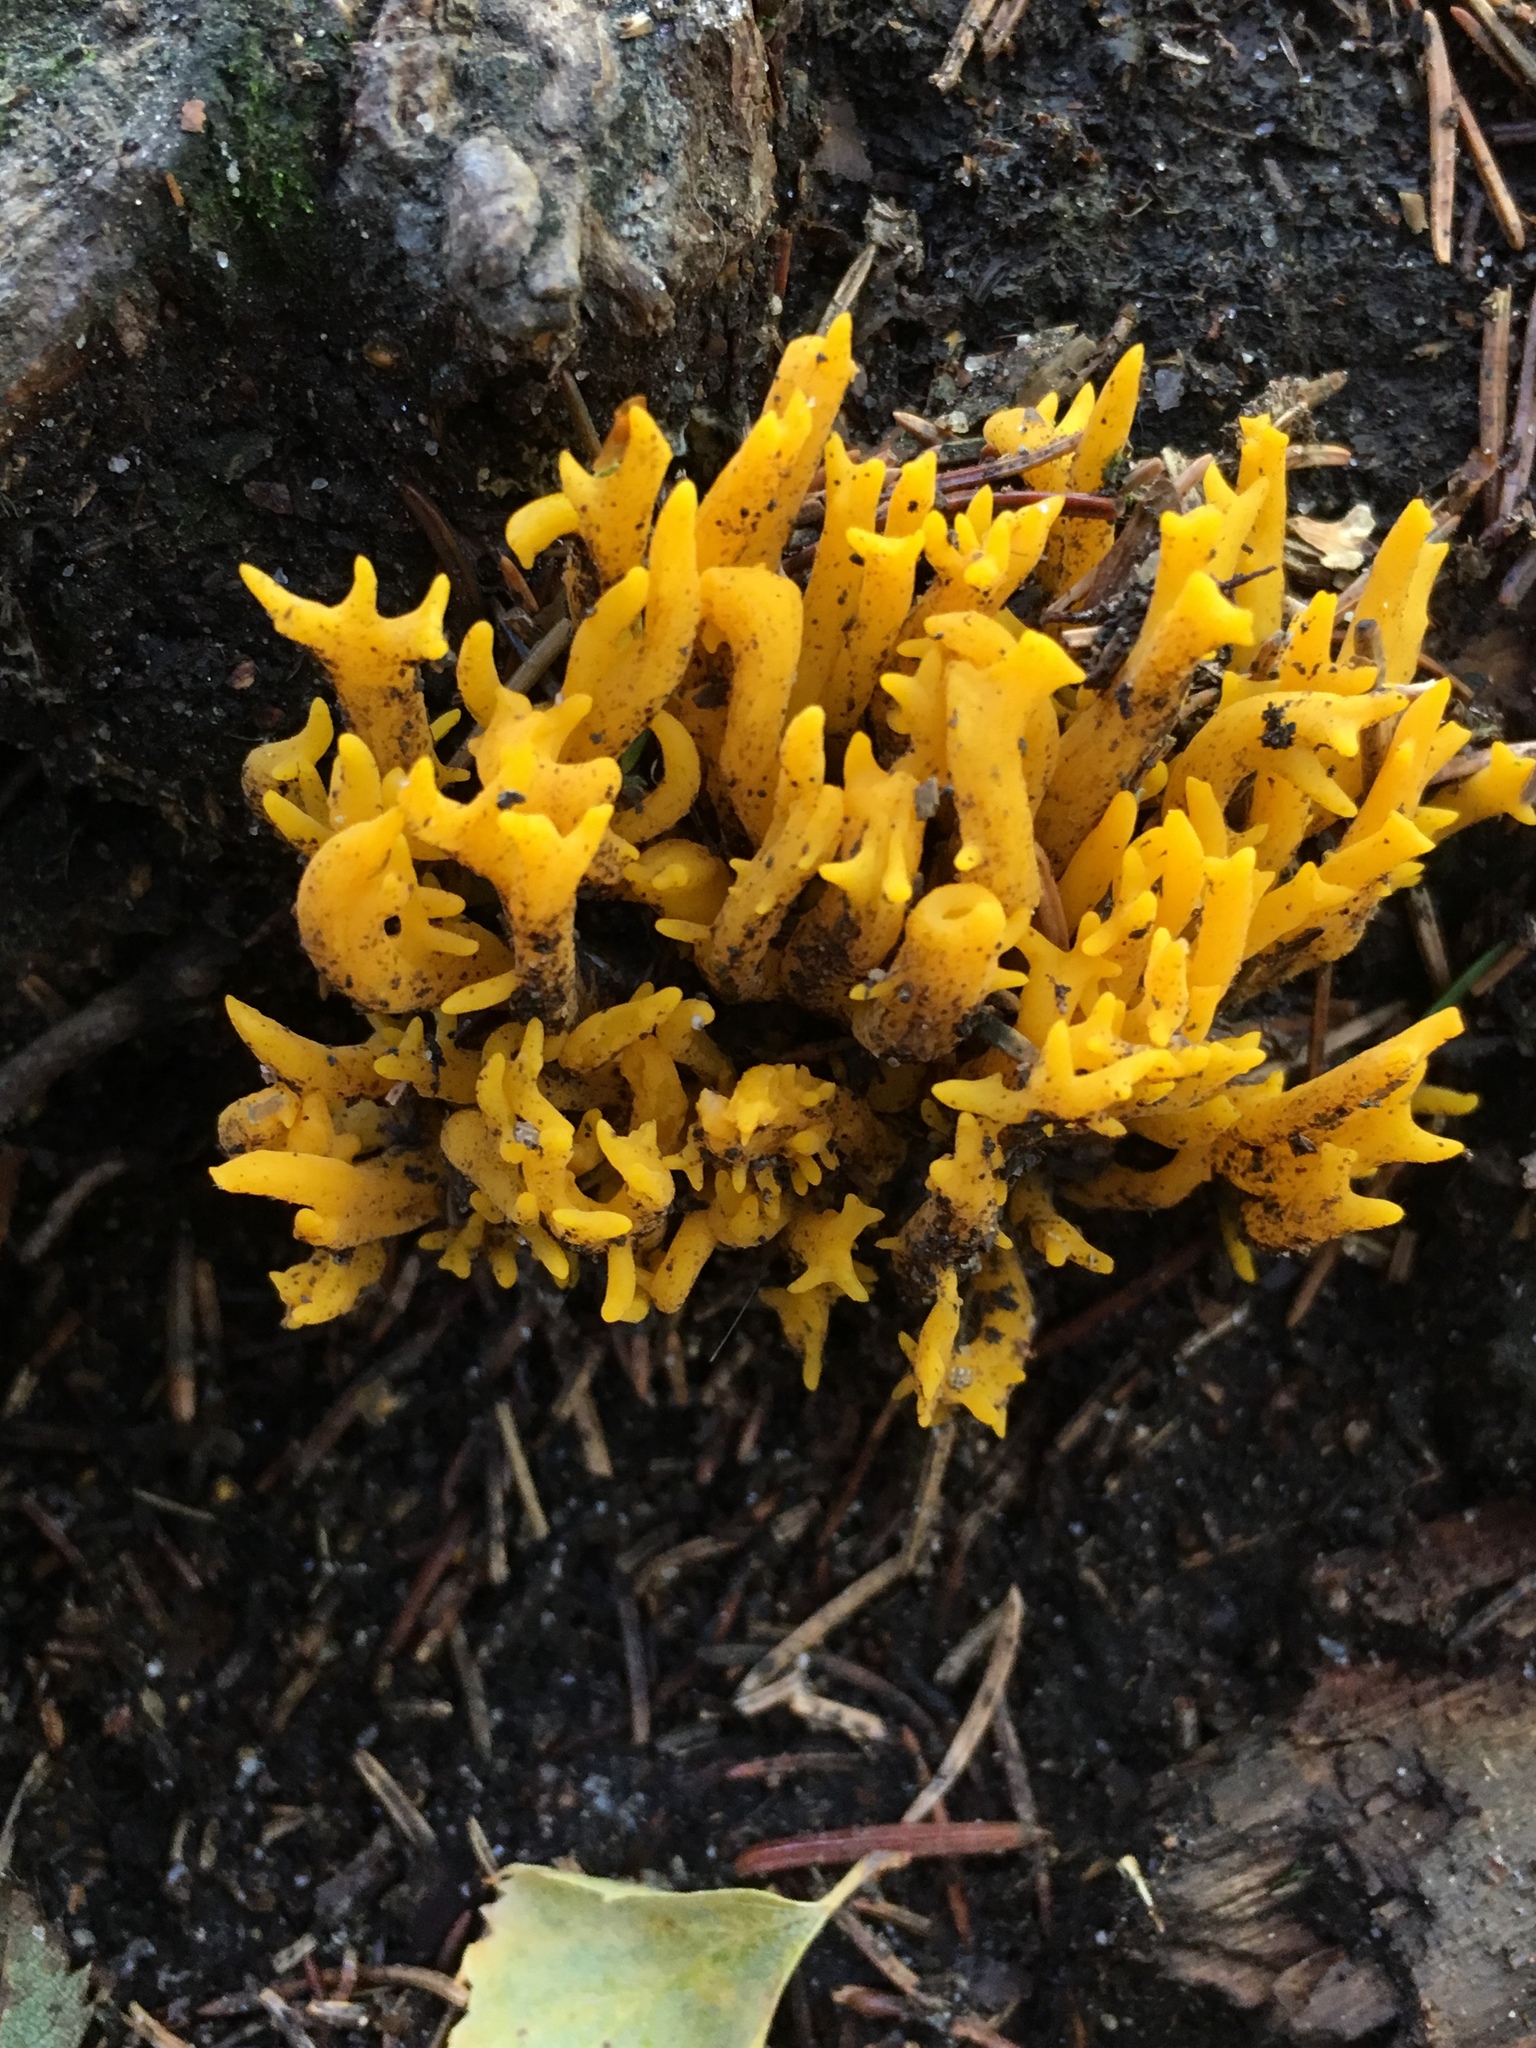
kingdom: Fungi
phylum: Basidiomycota
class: Dacrymycetes
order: Dacrymycetales
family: Dacrymycetaceae
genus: Calocera
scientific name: Calocera viscosa
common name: Yellow stagshorn
